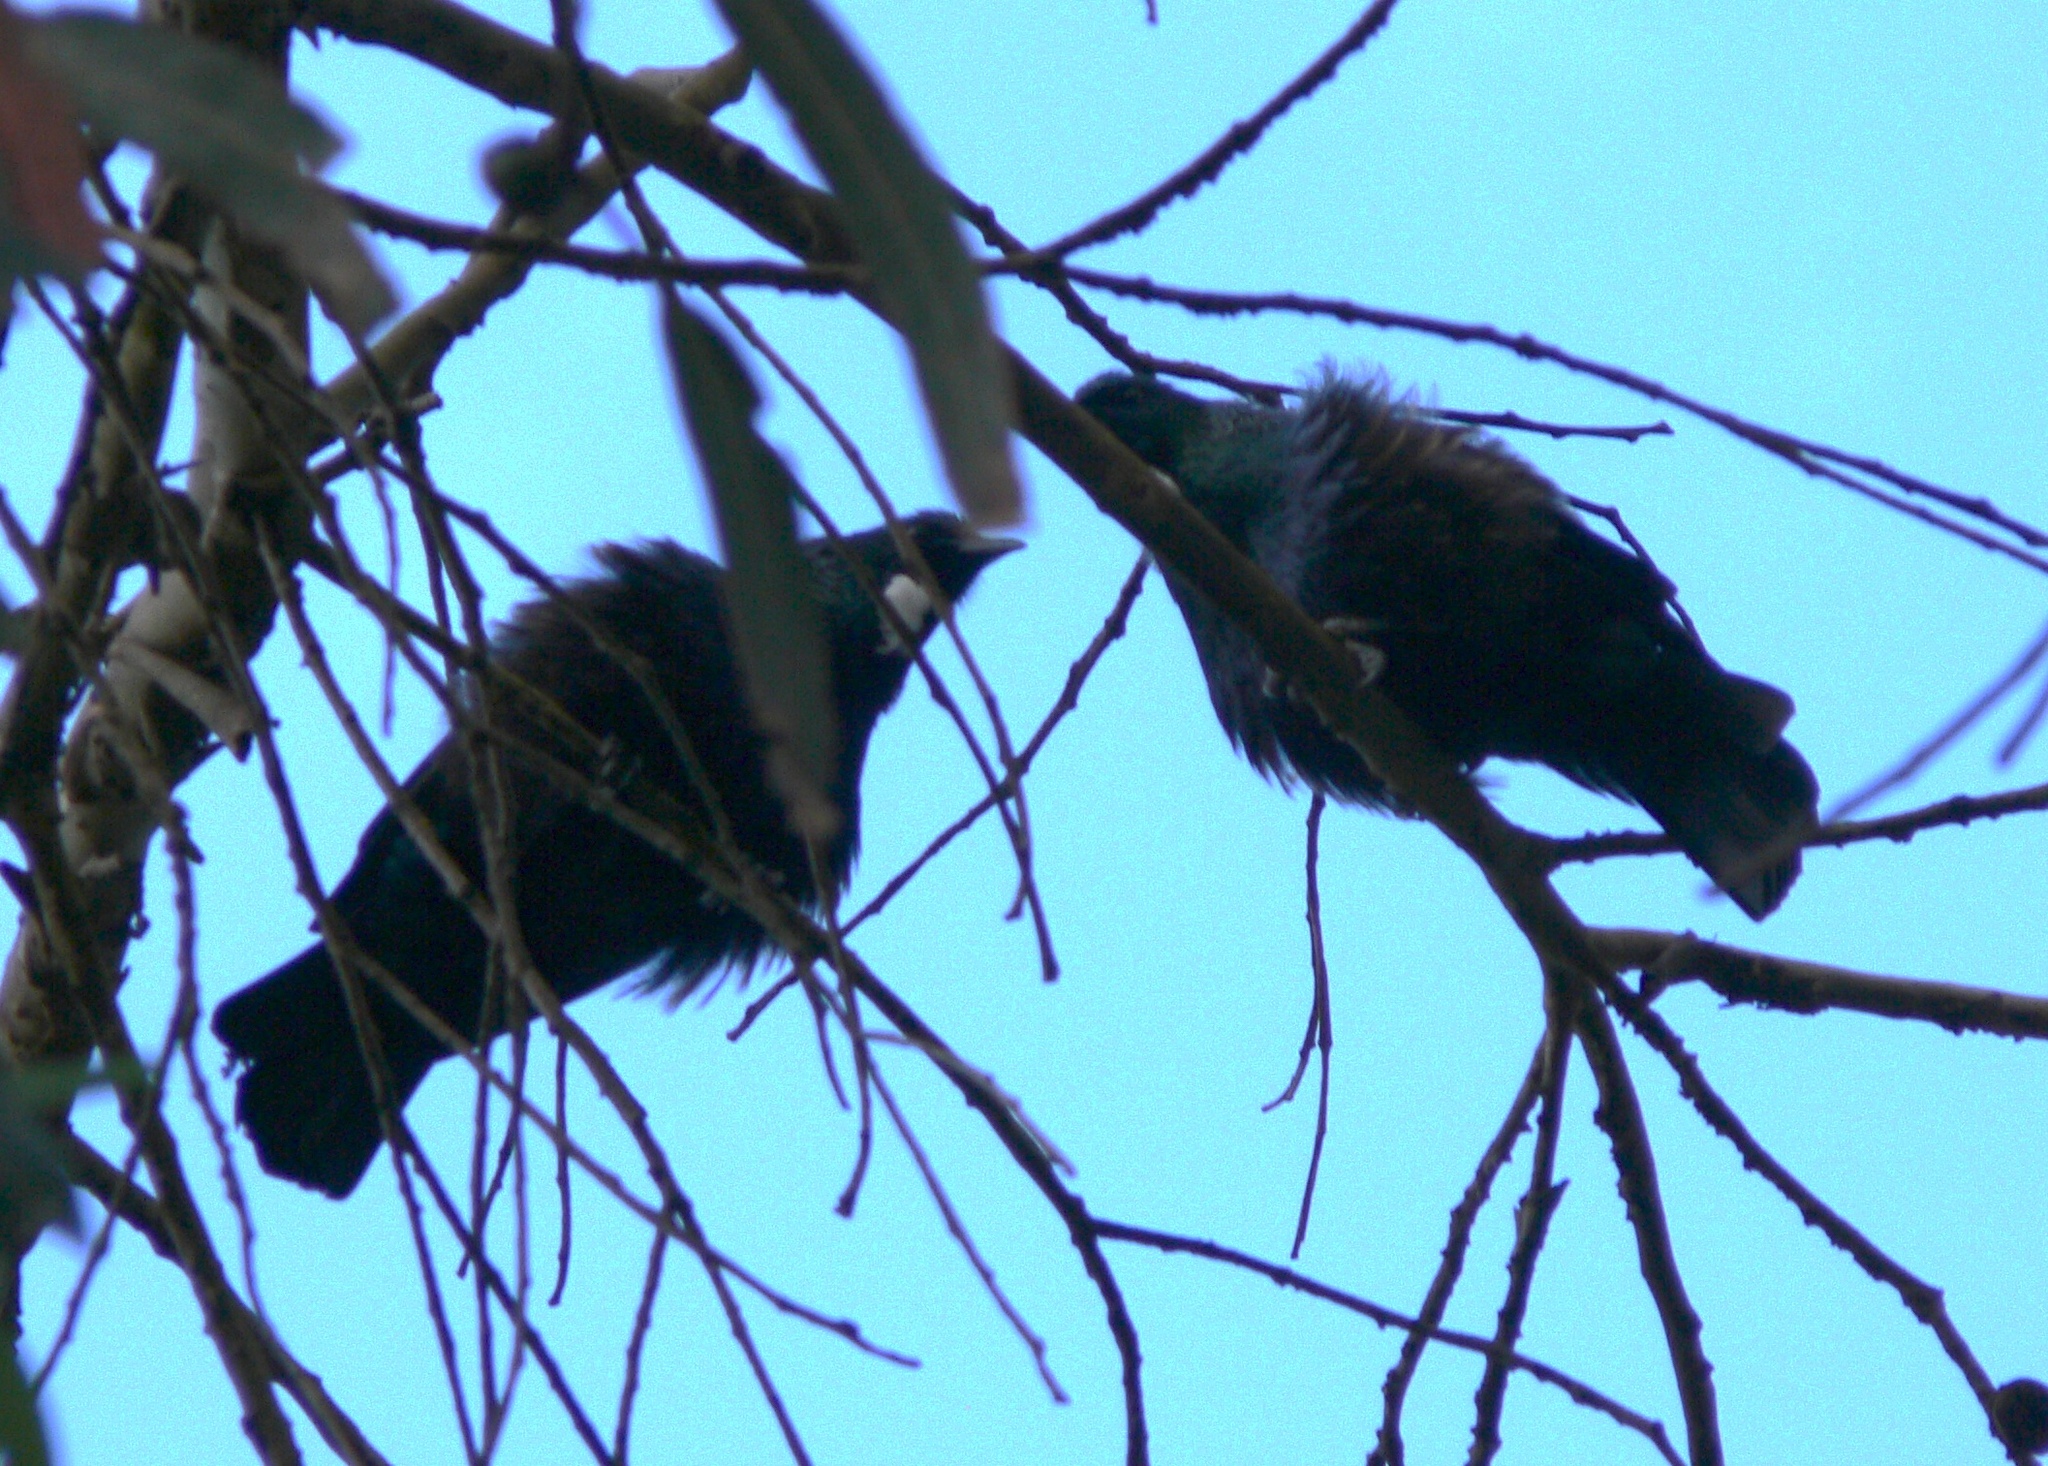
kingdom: Animalia
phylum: Chordata
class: Aves
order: Passeriformes
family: Meliphagidae
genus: Prosthemadera
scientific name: Prosthemadera novaeseelandiae
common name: Tui
